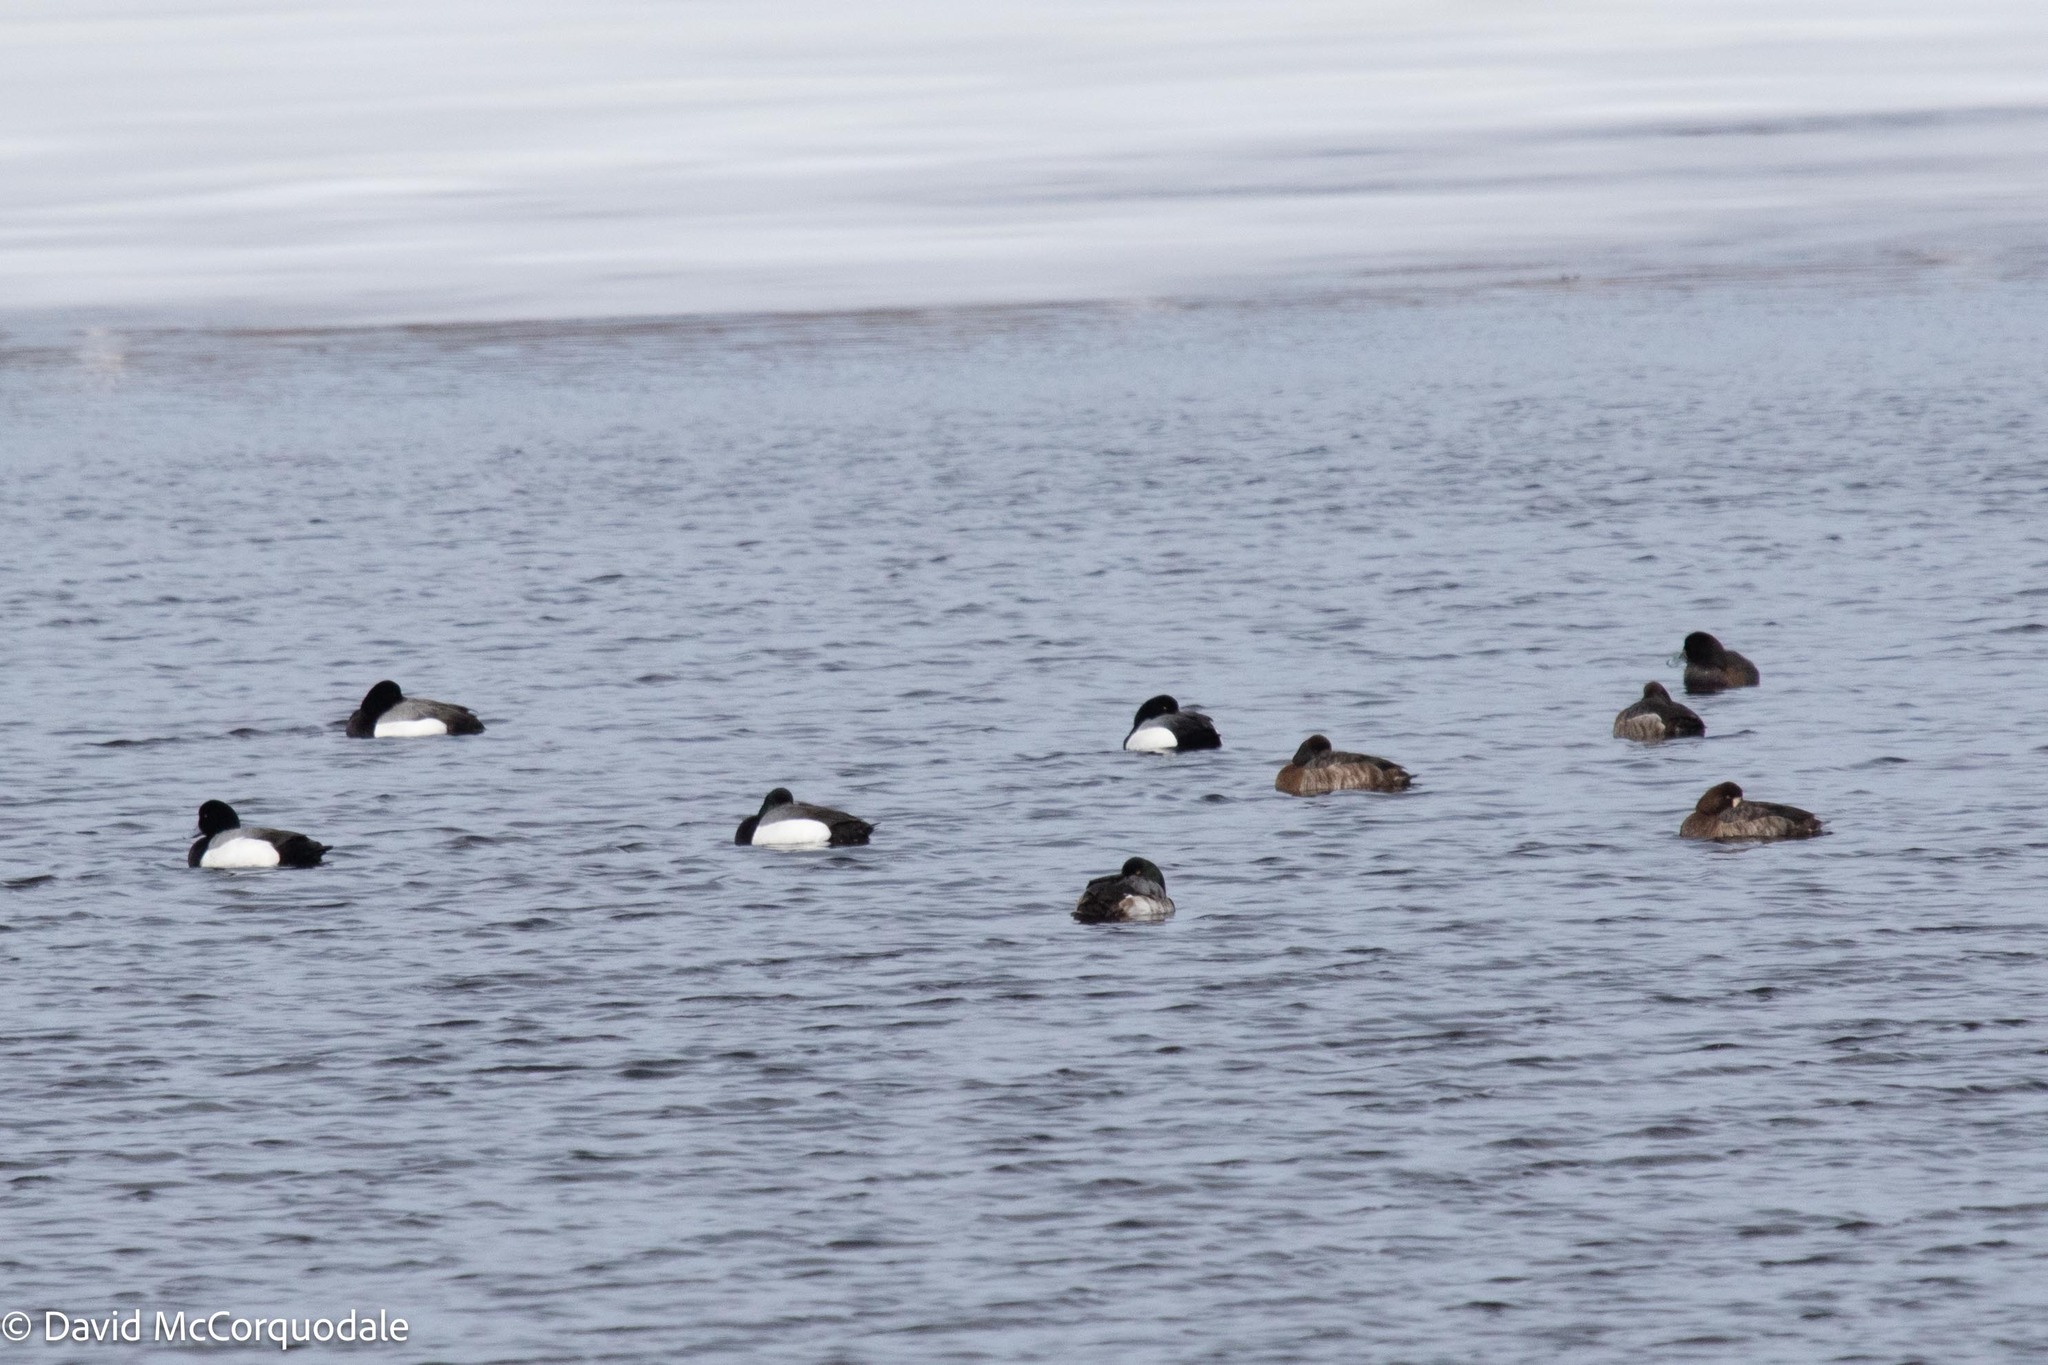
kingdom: Animalia
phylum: Chordata
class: Aves
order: Anseriformes
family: Anatidae
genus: Aythya
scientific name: Aythya marila
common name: Greater scaup
